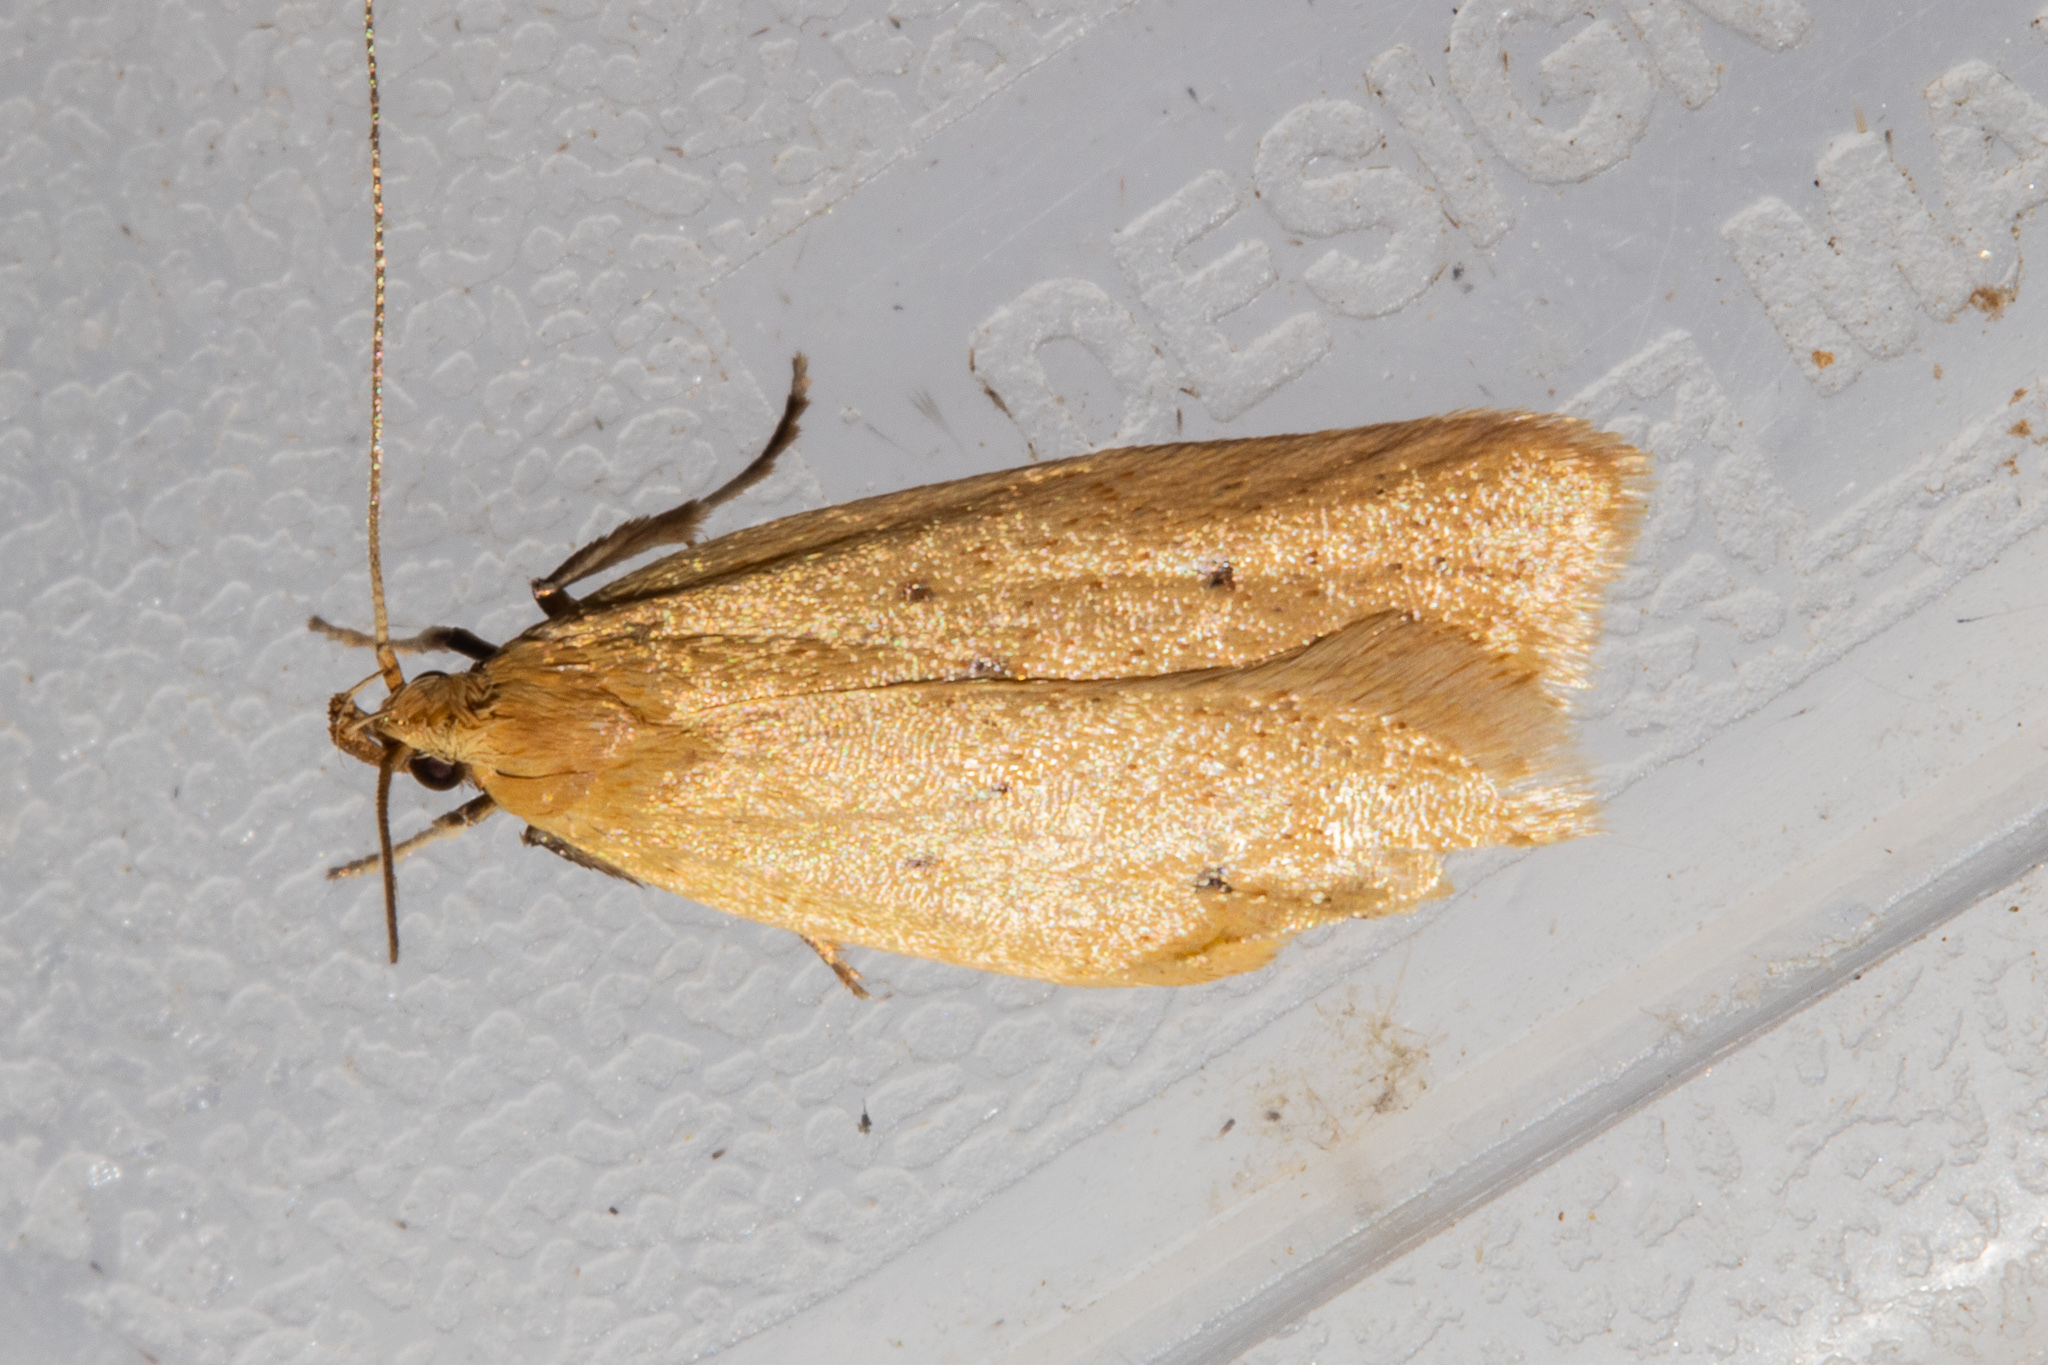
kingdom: Animalia
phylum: Arthropoda
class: Insecta
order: Lepidoptera
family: Oecophoridae
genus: Gymnobathra
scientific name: Gymnobathra sarcoxantha
